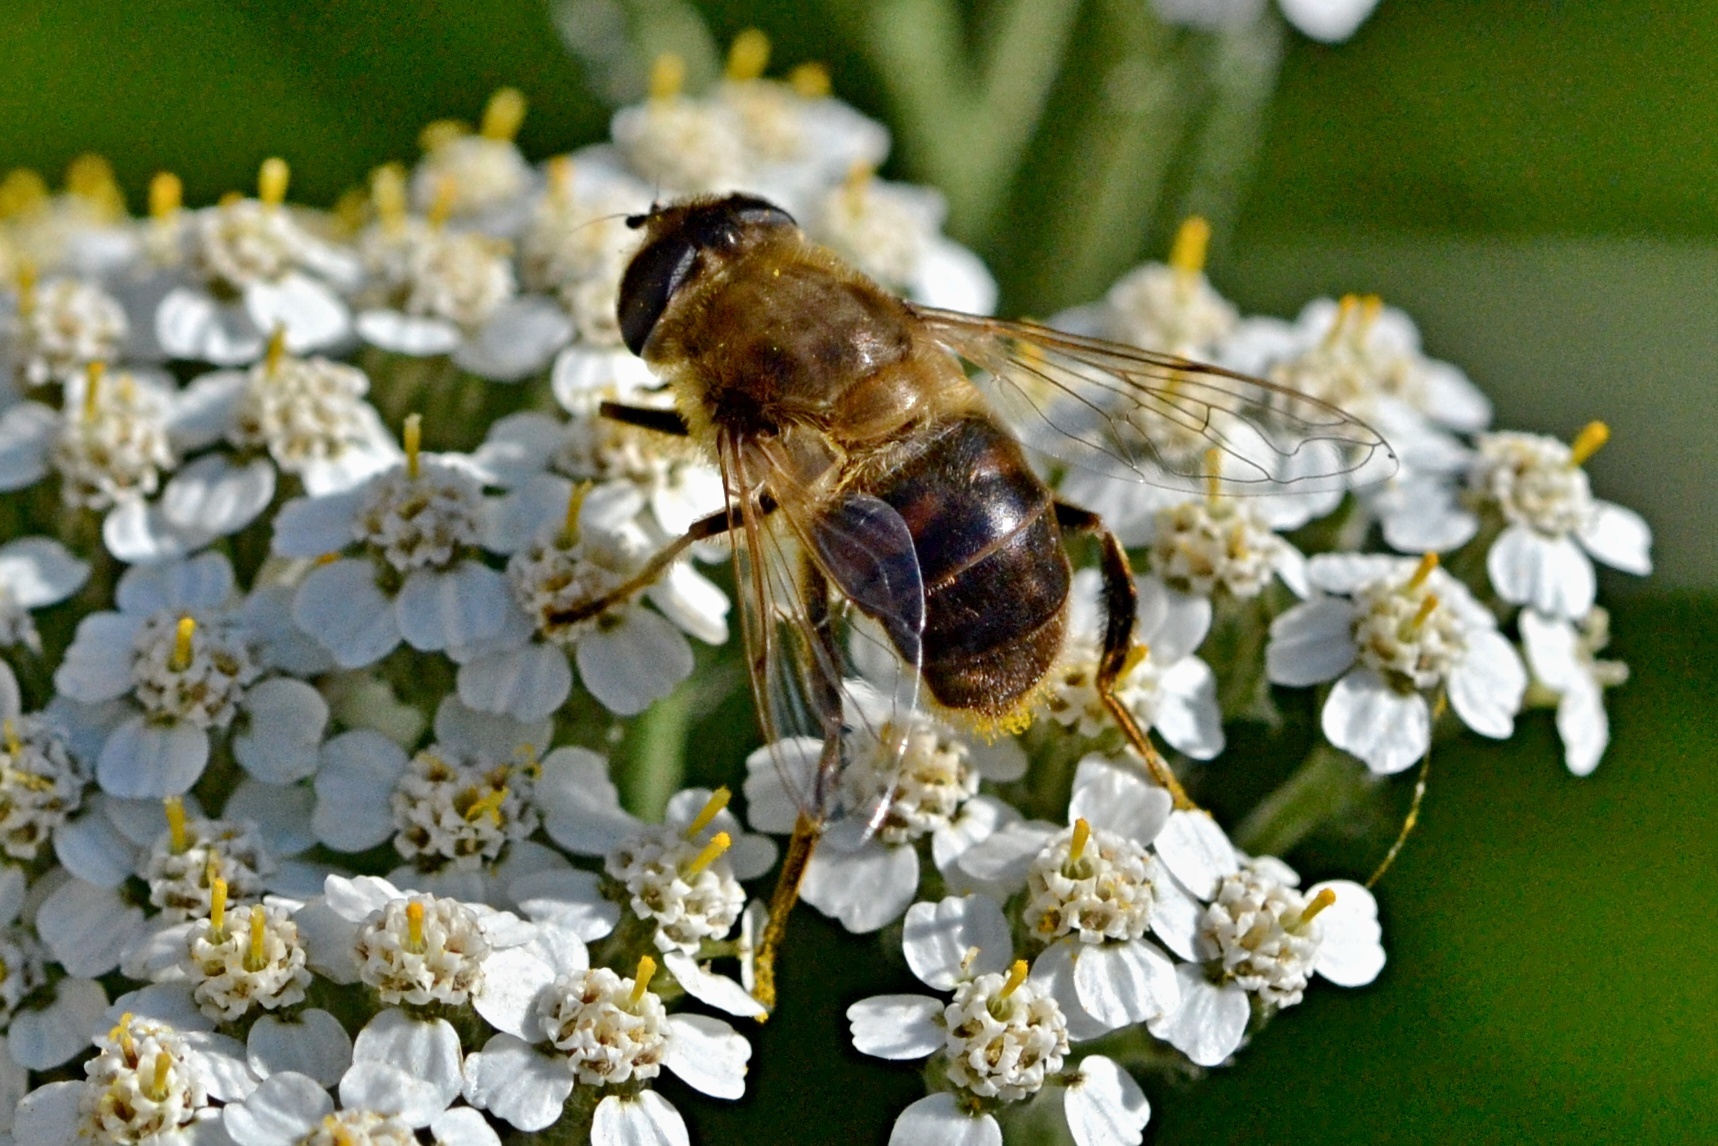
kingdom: Animalia
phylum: Arthropoda
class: Insecta
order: Diptera
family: Syrphidae
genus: Eristalis
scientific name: Eristalis tenax
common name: Drone fly
